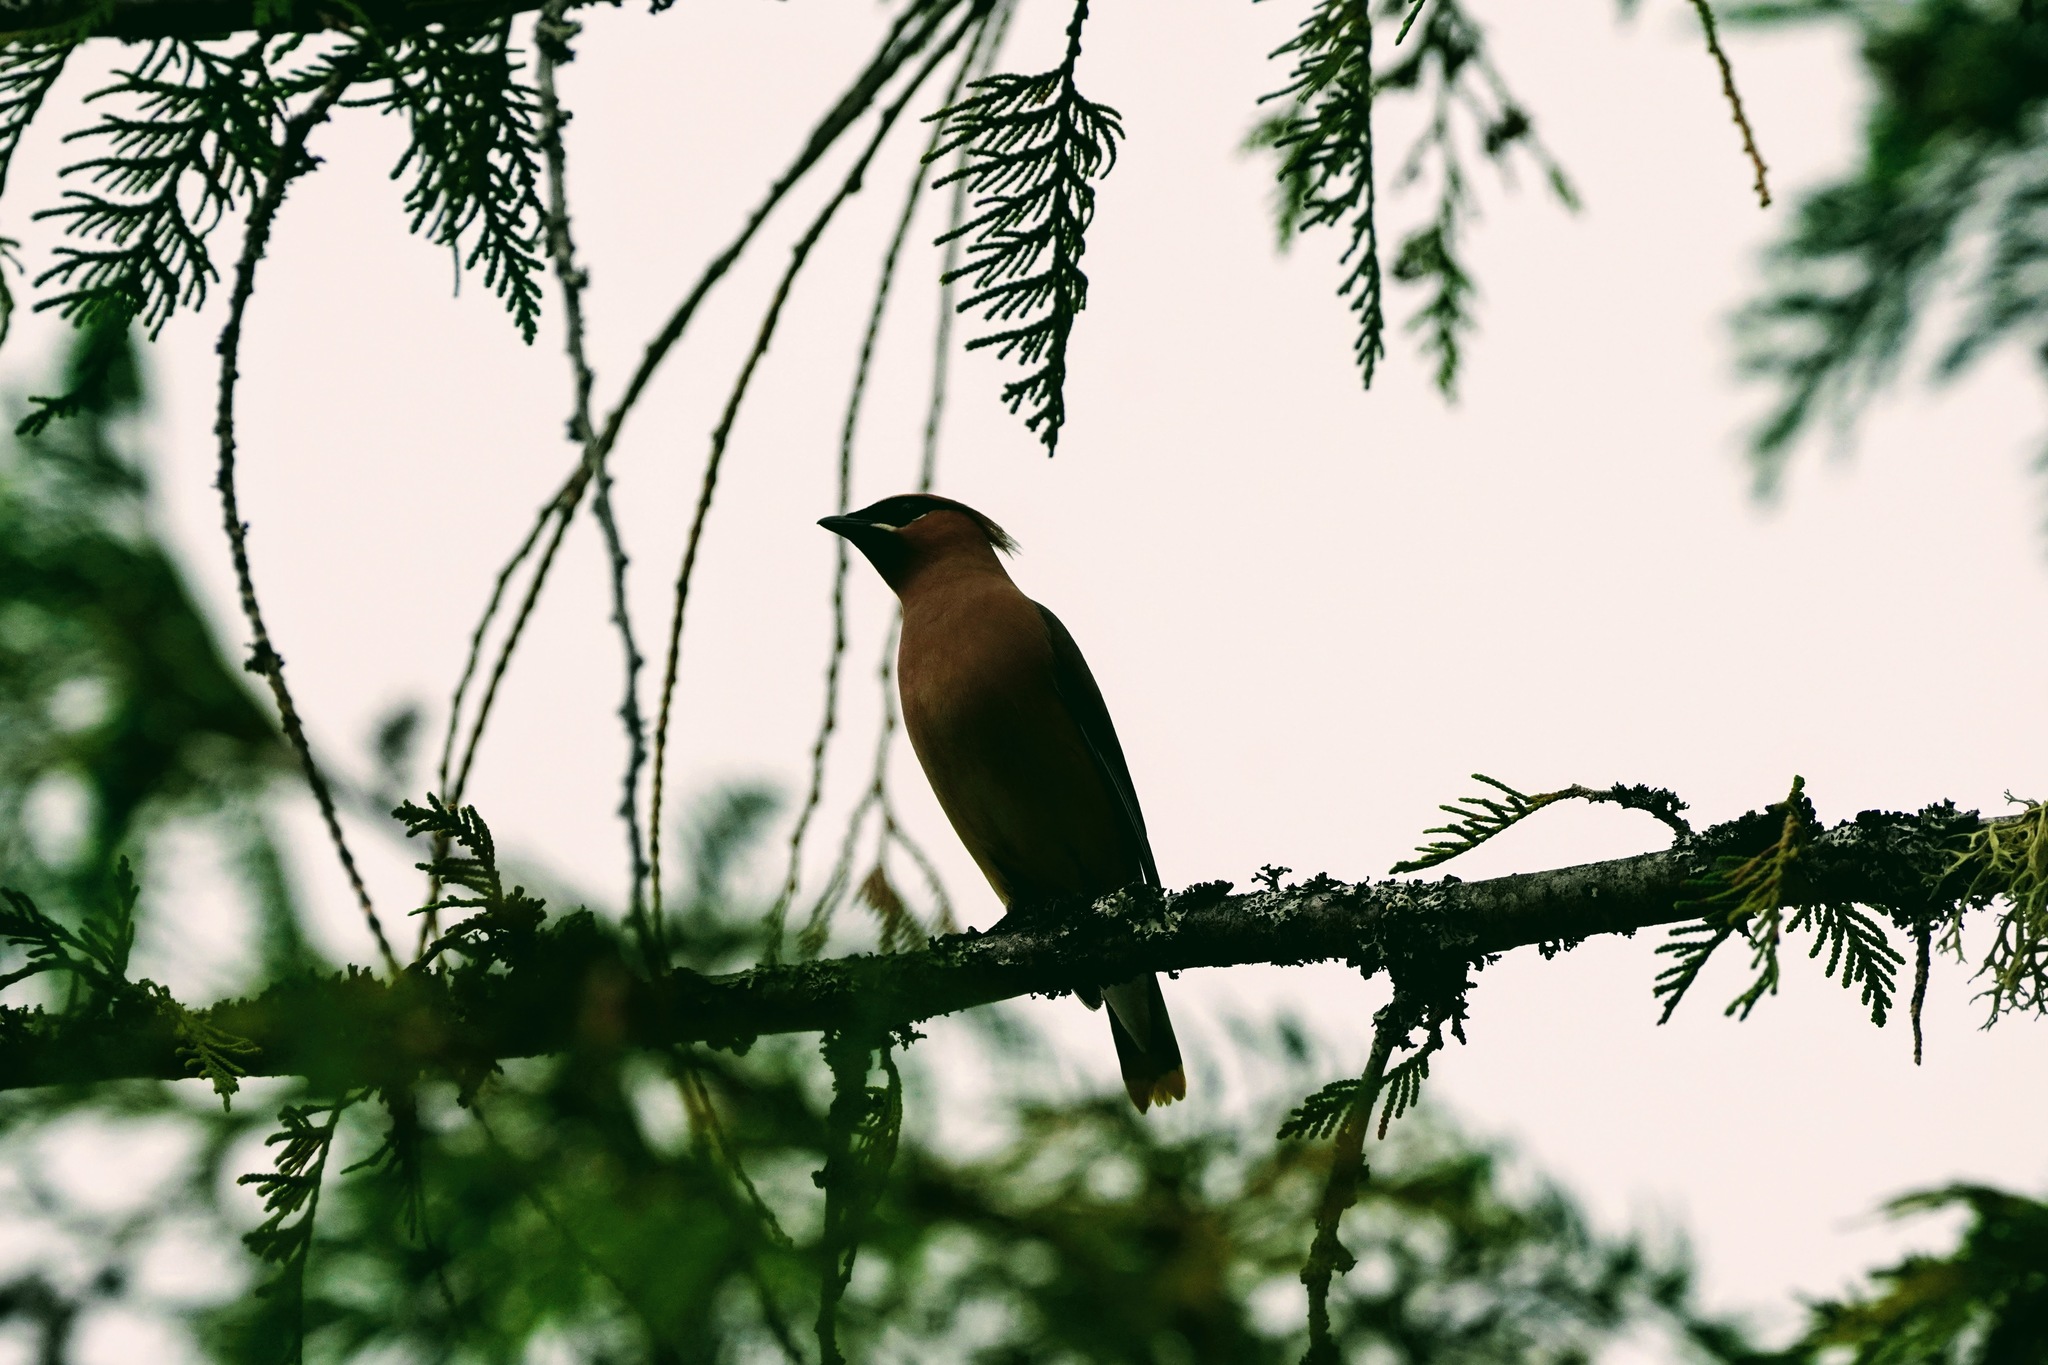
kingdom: Animalia
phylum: Chordata
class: Aves
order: Passeriformes
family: Bombycillidae
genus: Bombycilla
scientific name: Bombycilla cedrorum
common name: Cedar waxwing
